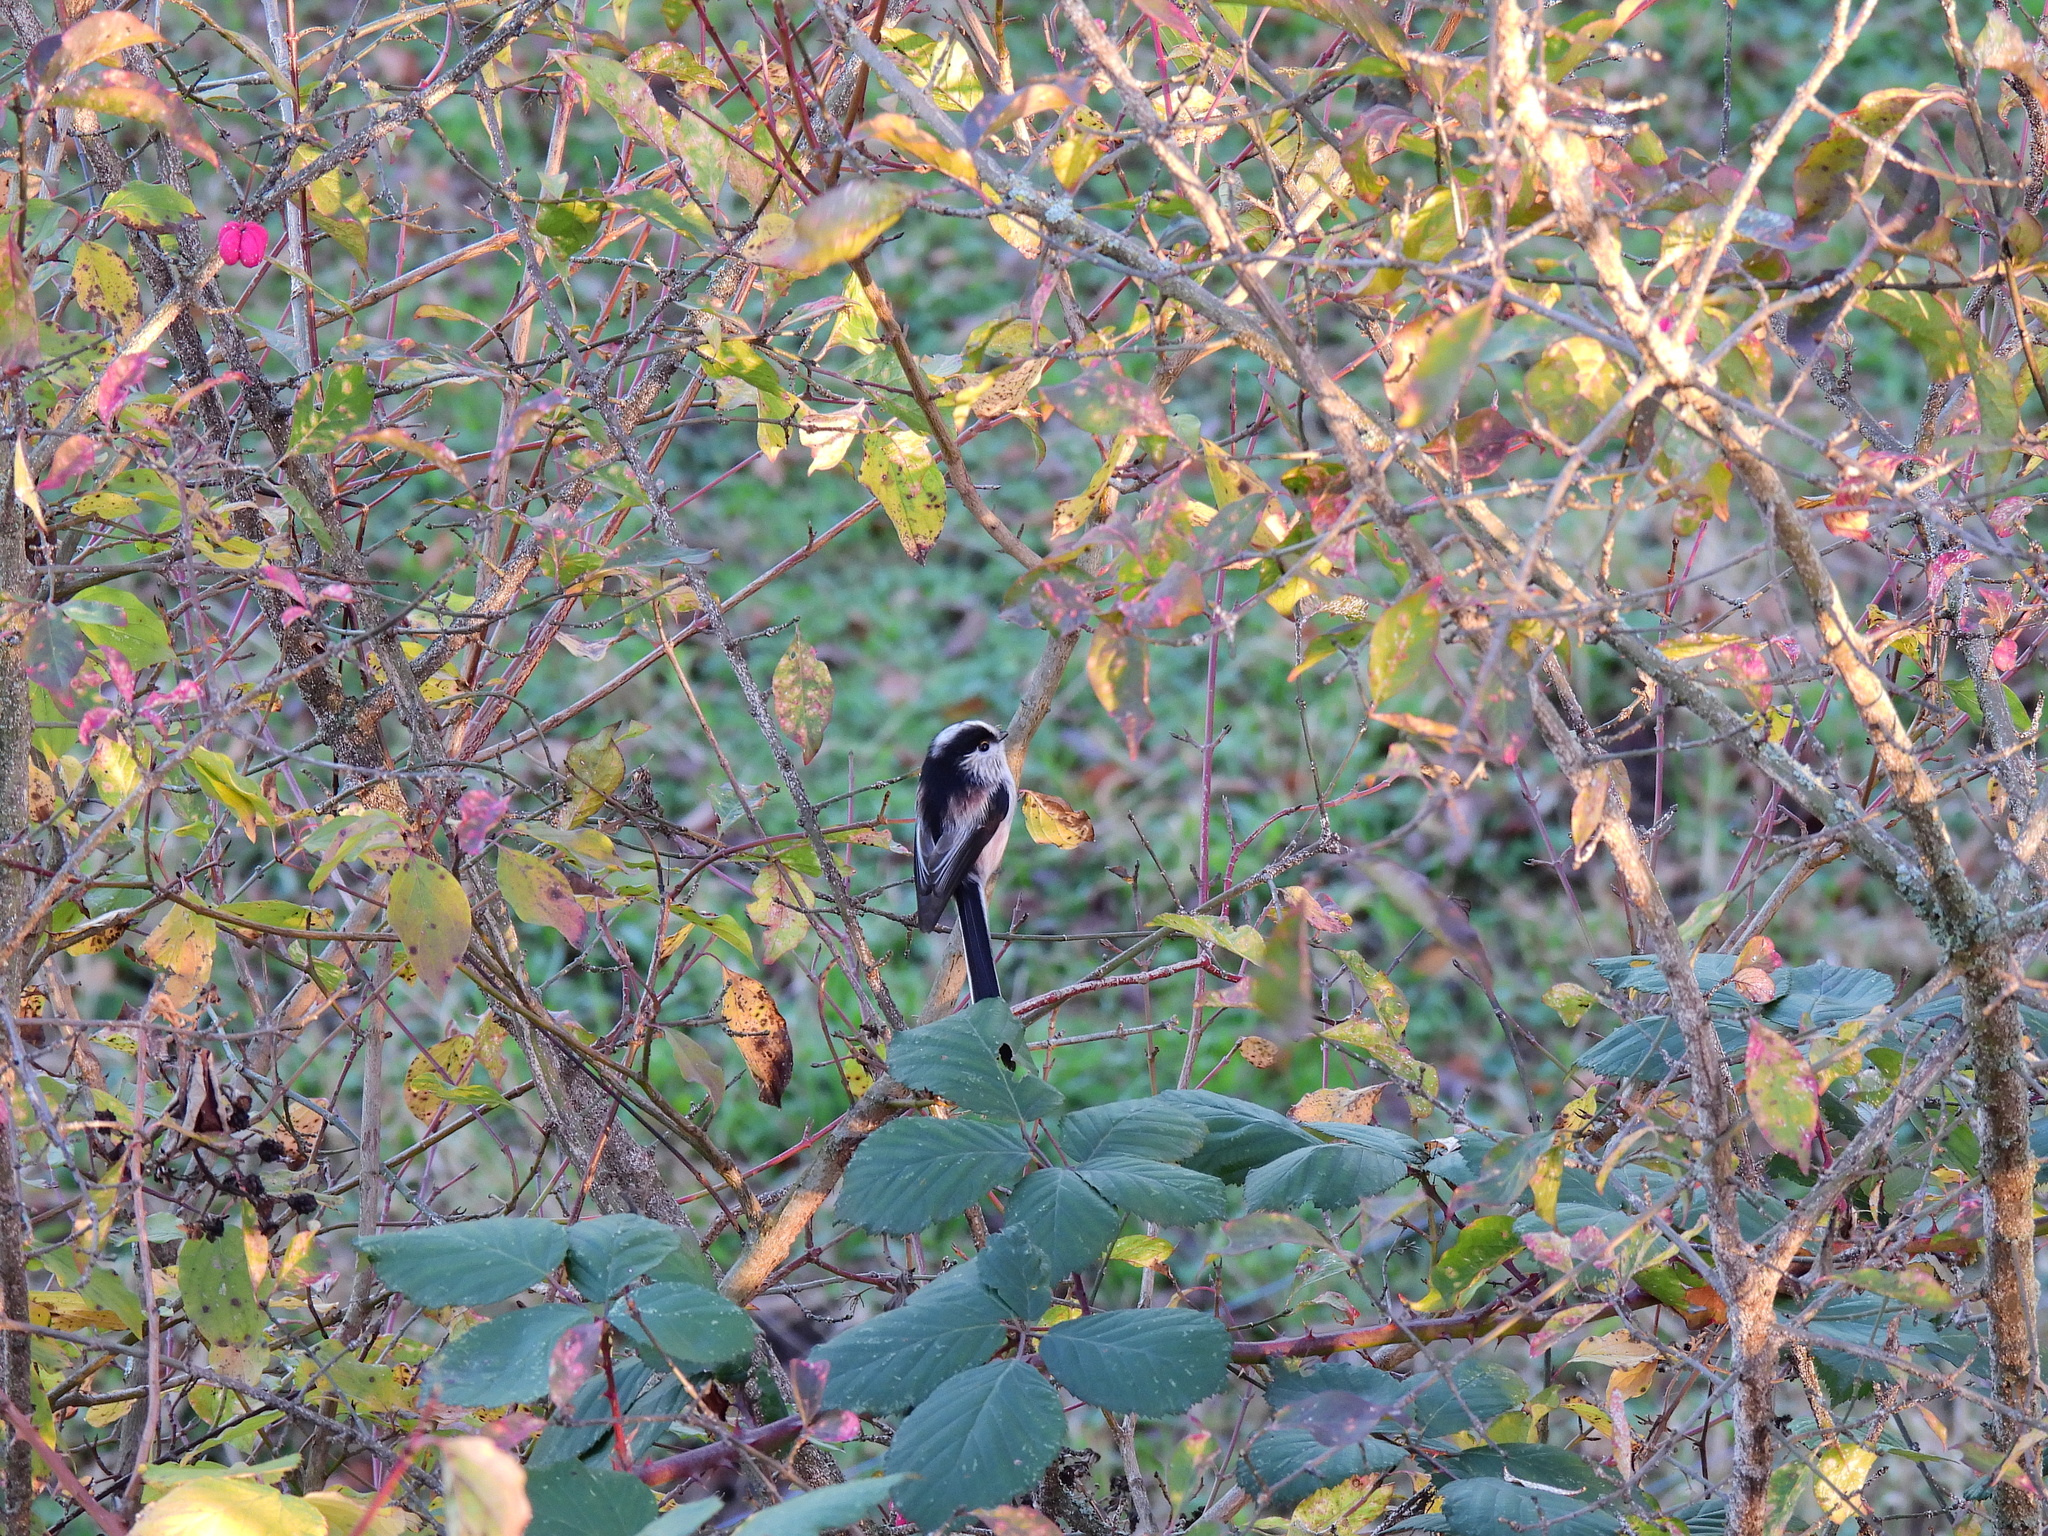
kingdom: Animalia
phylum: Chordata
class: Aves
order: Passeriformes
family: Aegithalidae
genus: Aegithalos
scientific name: Aegithalos caudatus
